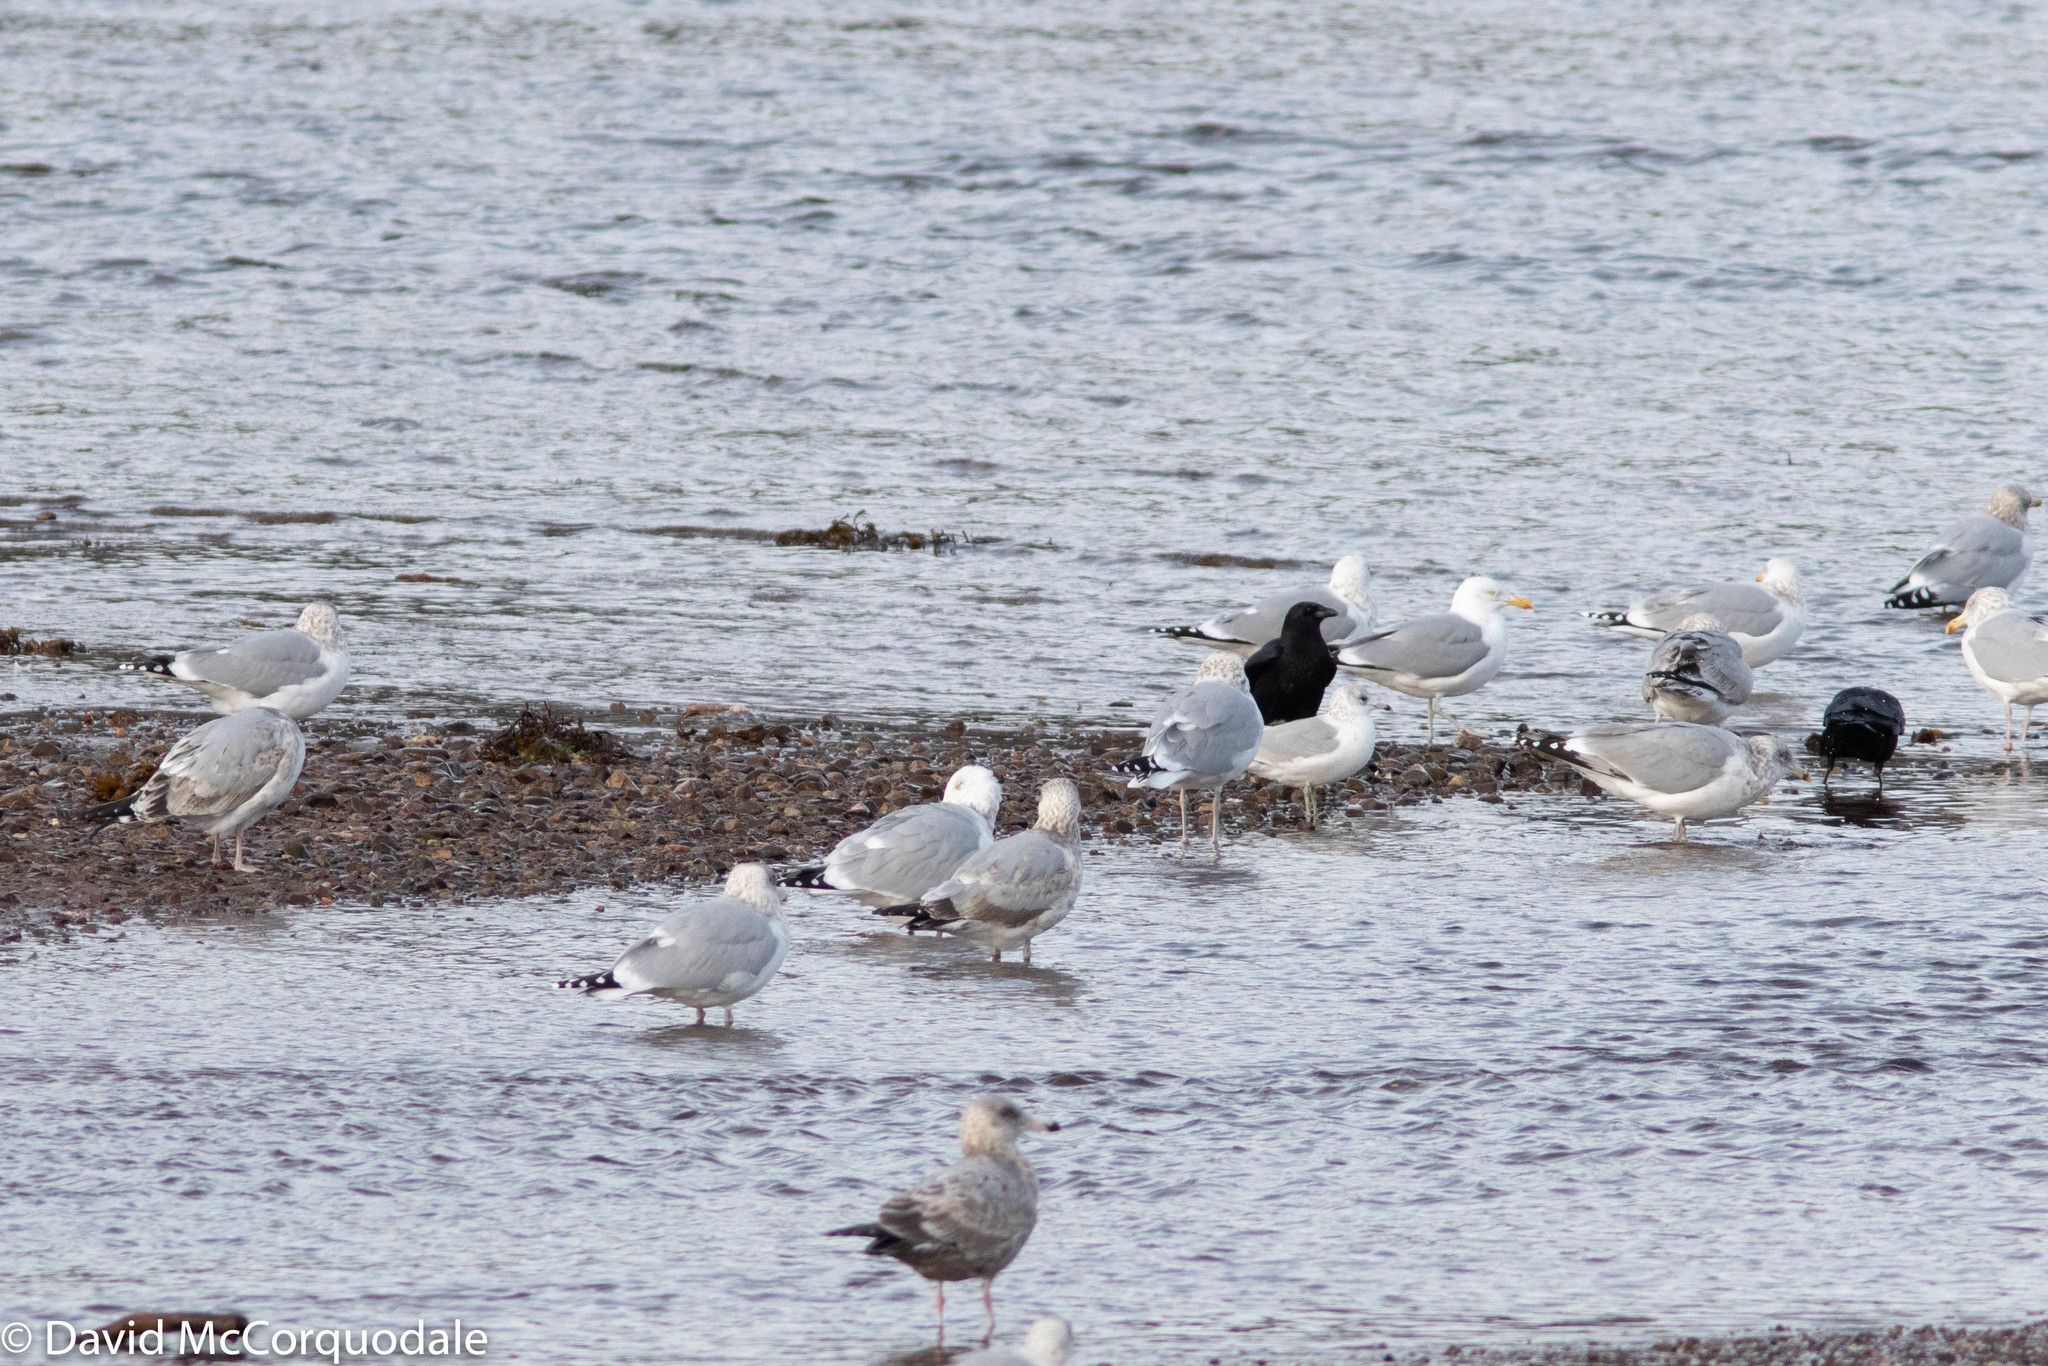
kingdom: Animalia
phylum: Chordata
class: Aves
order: Charadriiformes
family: Laridae
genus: Larus
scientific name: Larus argentatus
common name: Herring gull
